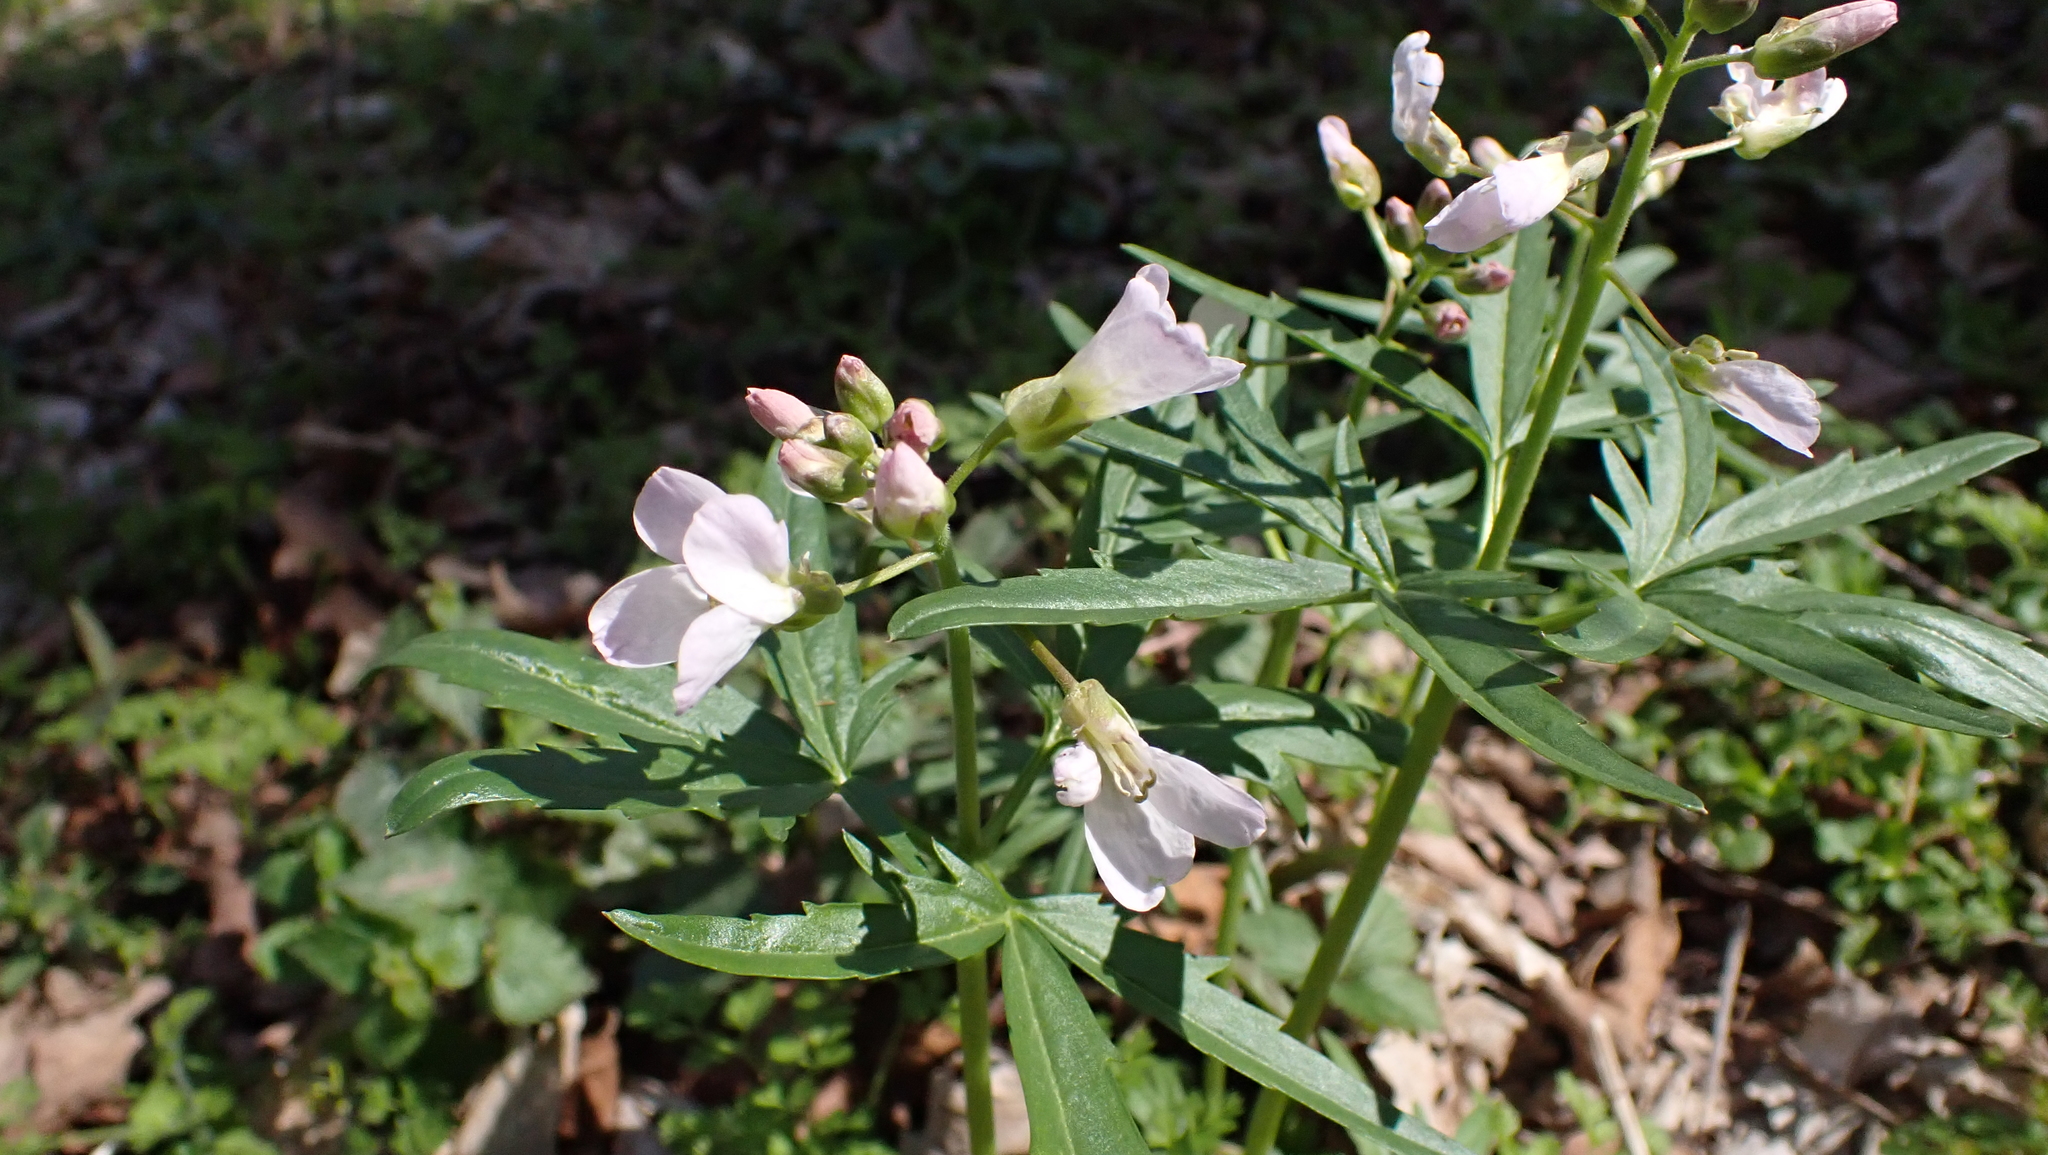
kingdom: Plantae
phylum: Tracheophyta
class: Magnoliopsida
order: Brassicales
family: Brassicaceae
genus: Cardamine
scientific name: Cardamine concatenata
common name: Cut-leaf toothcup
